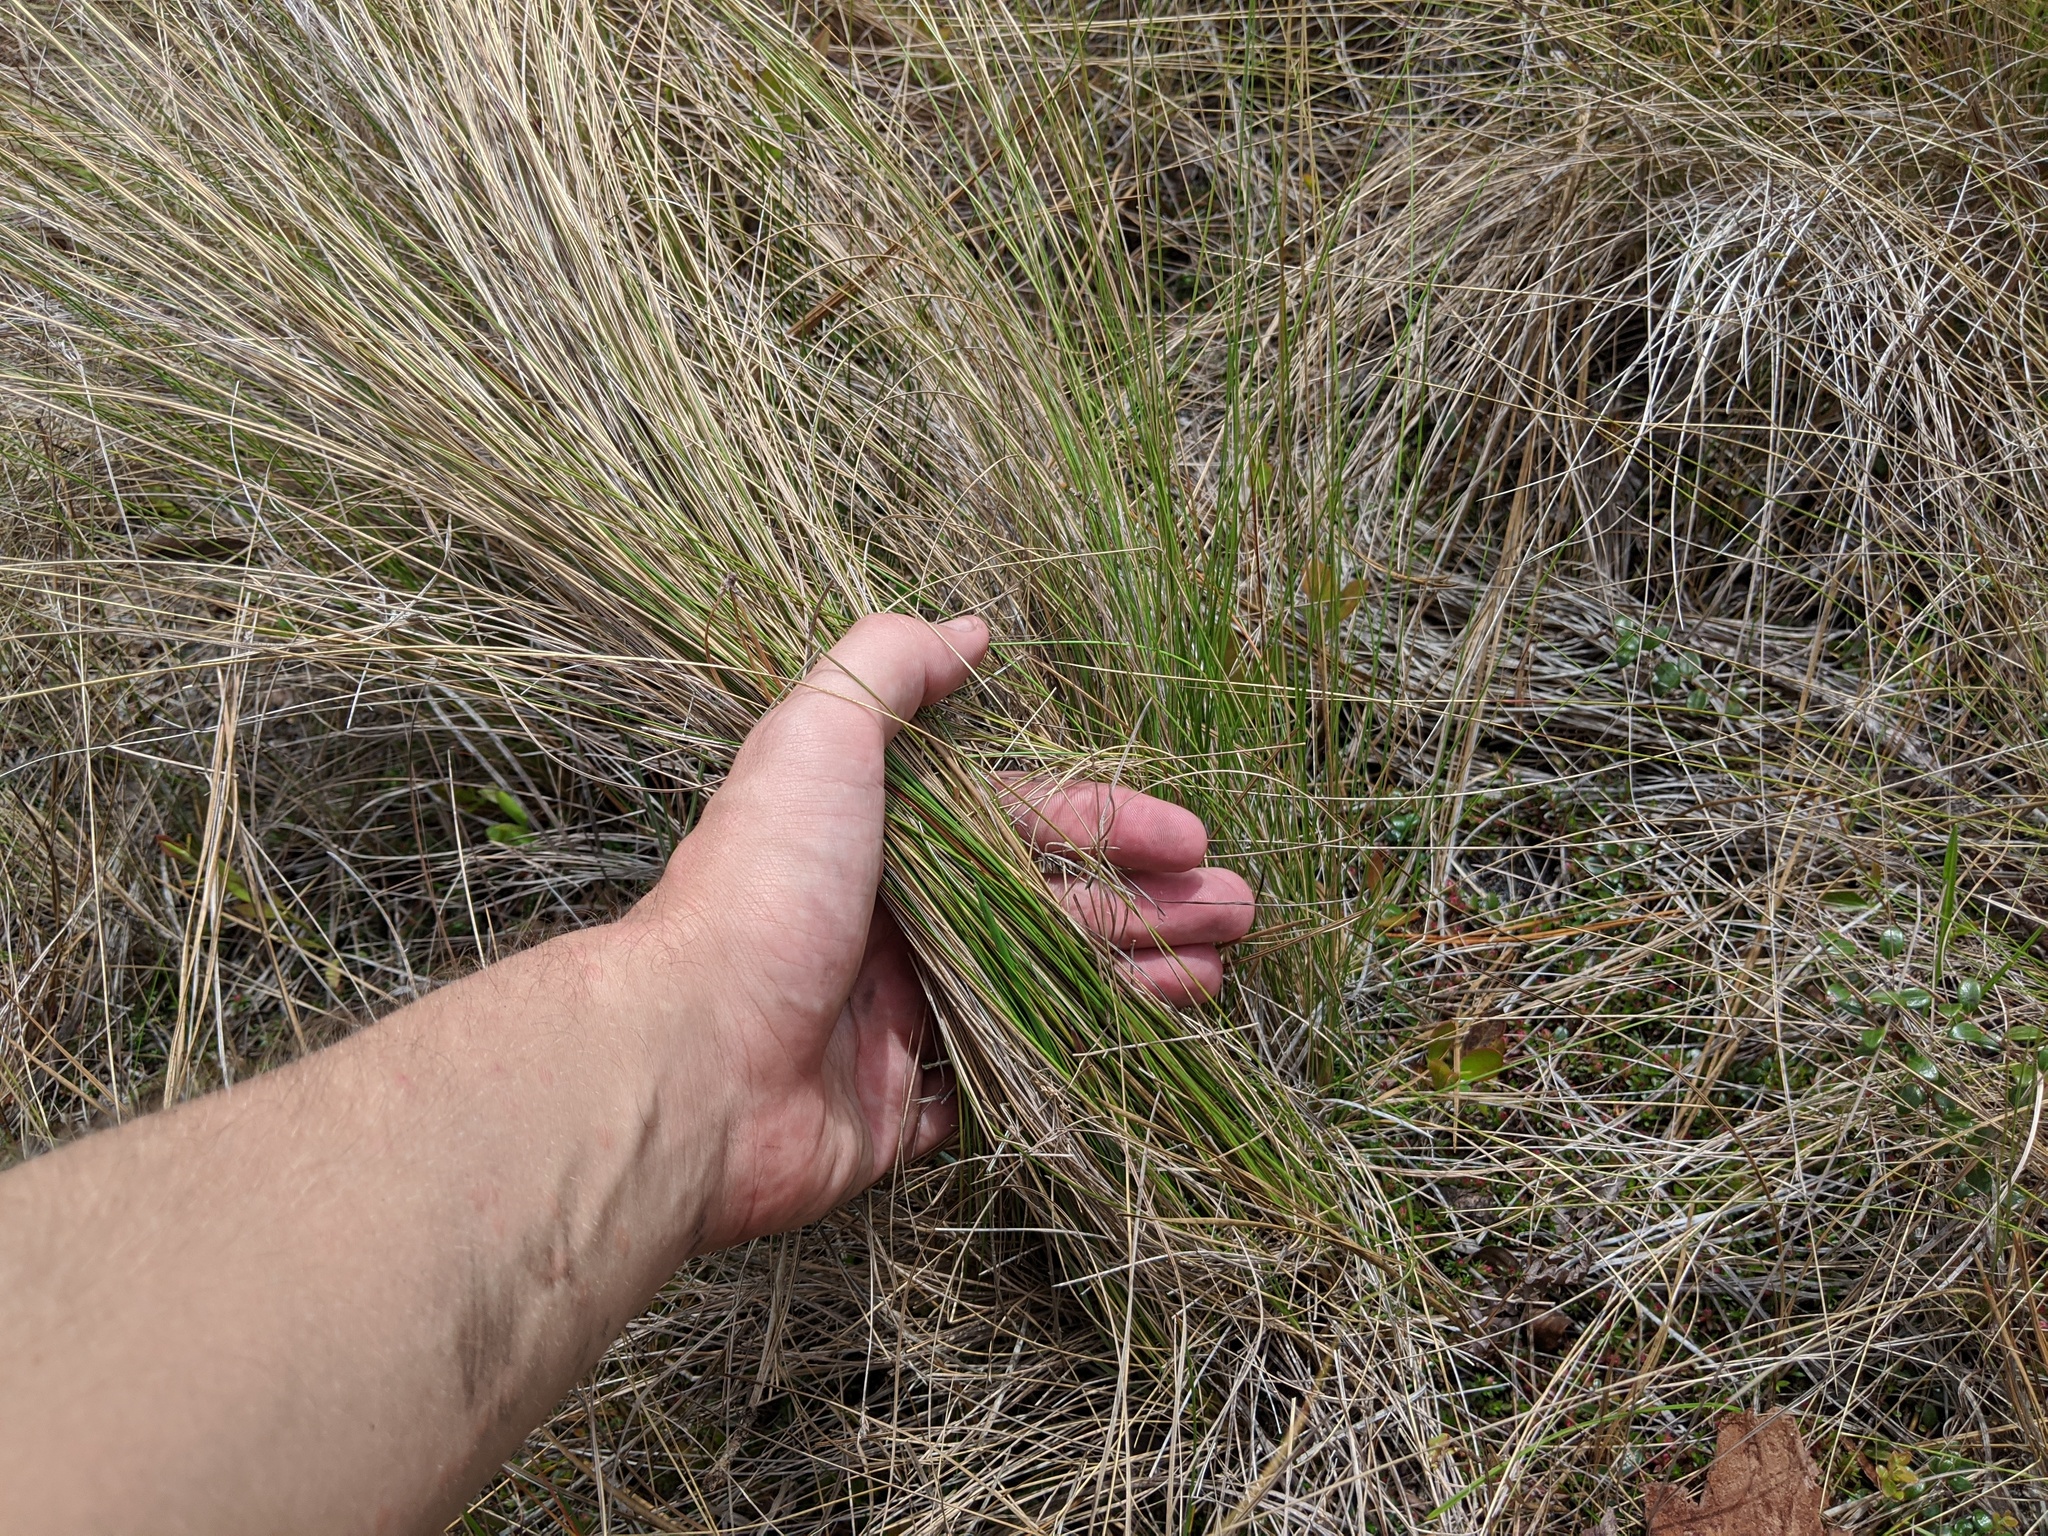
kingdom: Plantae
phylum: Tracheophyta
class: Liliopsida
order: Poales
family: Poaceae
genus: Aristida
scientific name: Aristida stricta
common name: Pineland three-awn
